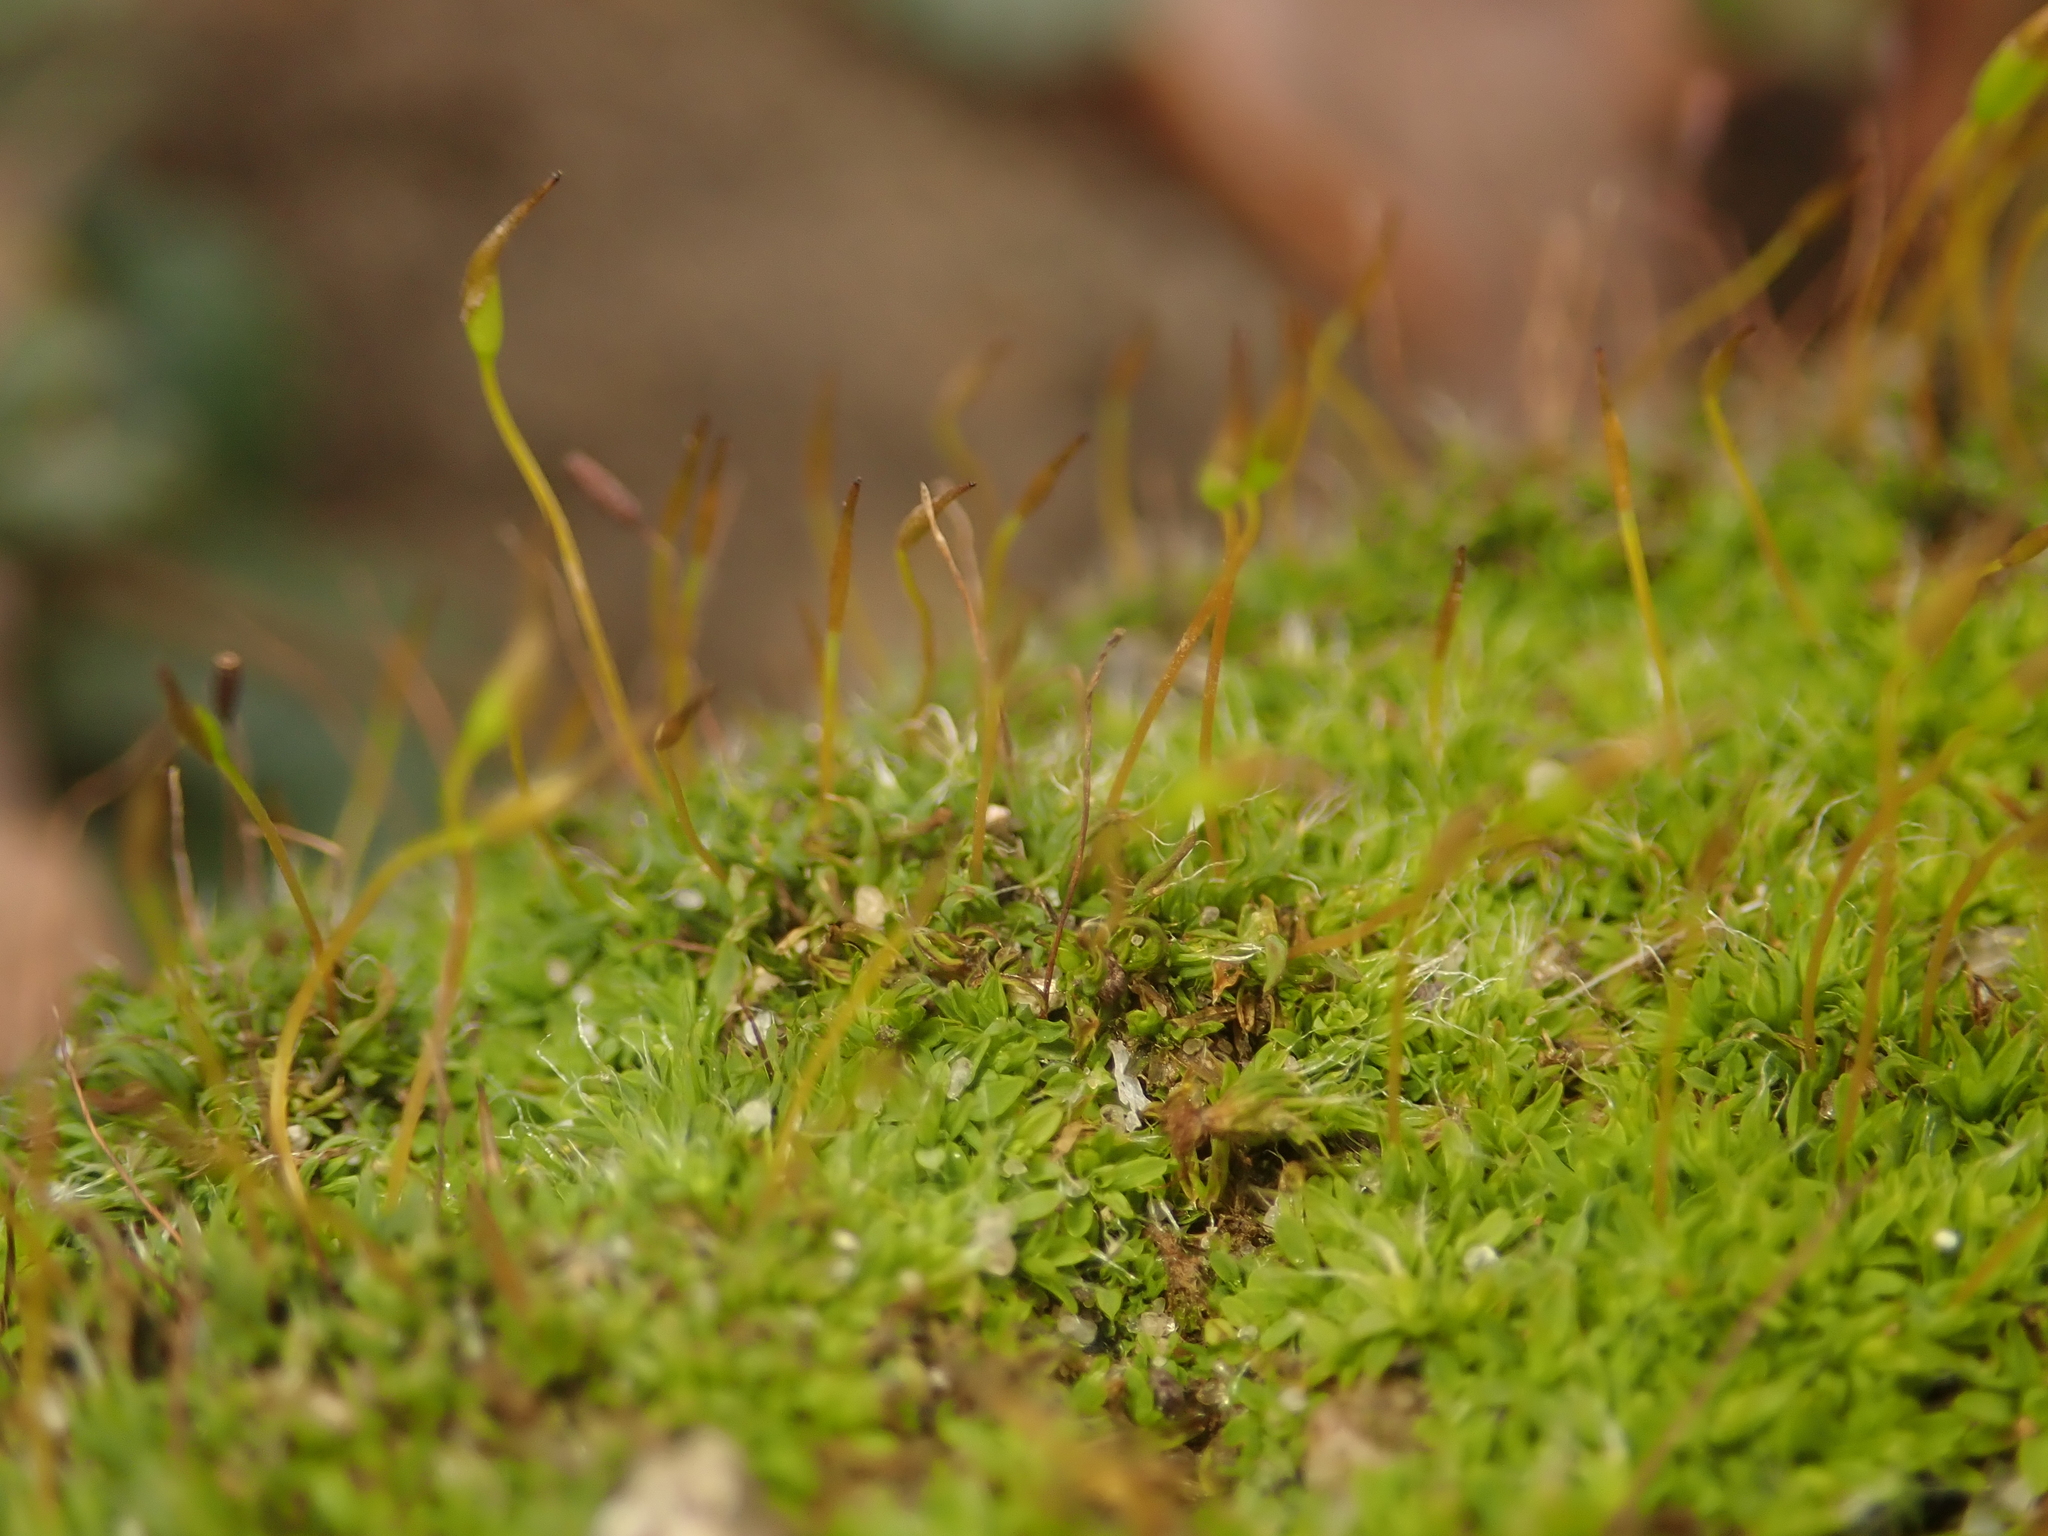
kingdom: Plantae
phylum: Bryophyta
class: Bryopsida
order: Pottiales
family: Pottiaceae
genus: Tortula
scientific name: Tortula muralis
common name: Wall screw-moss
